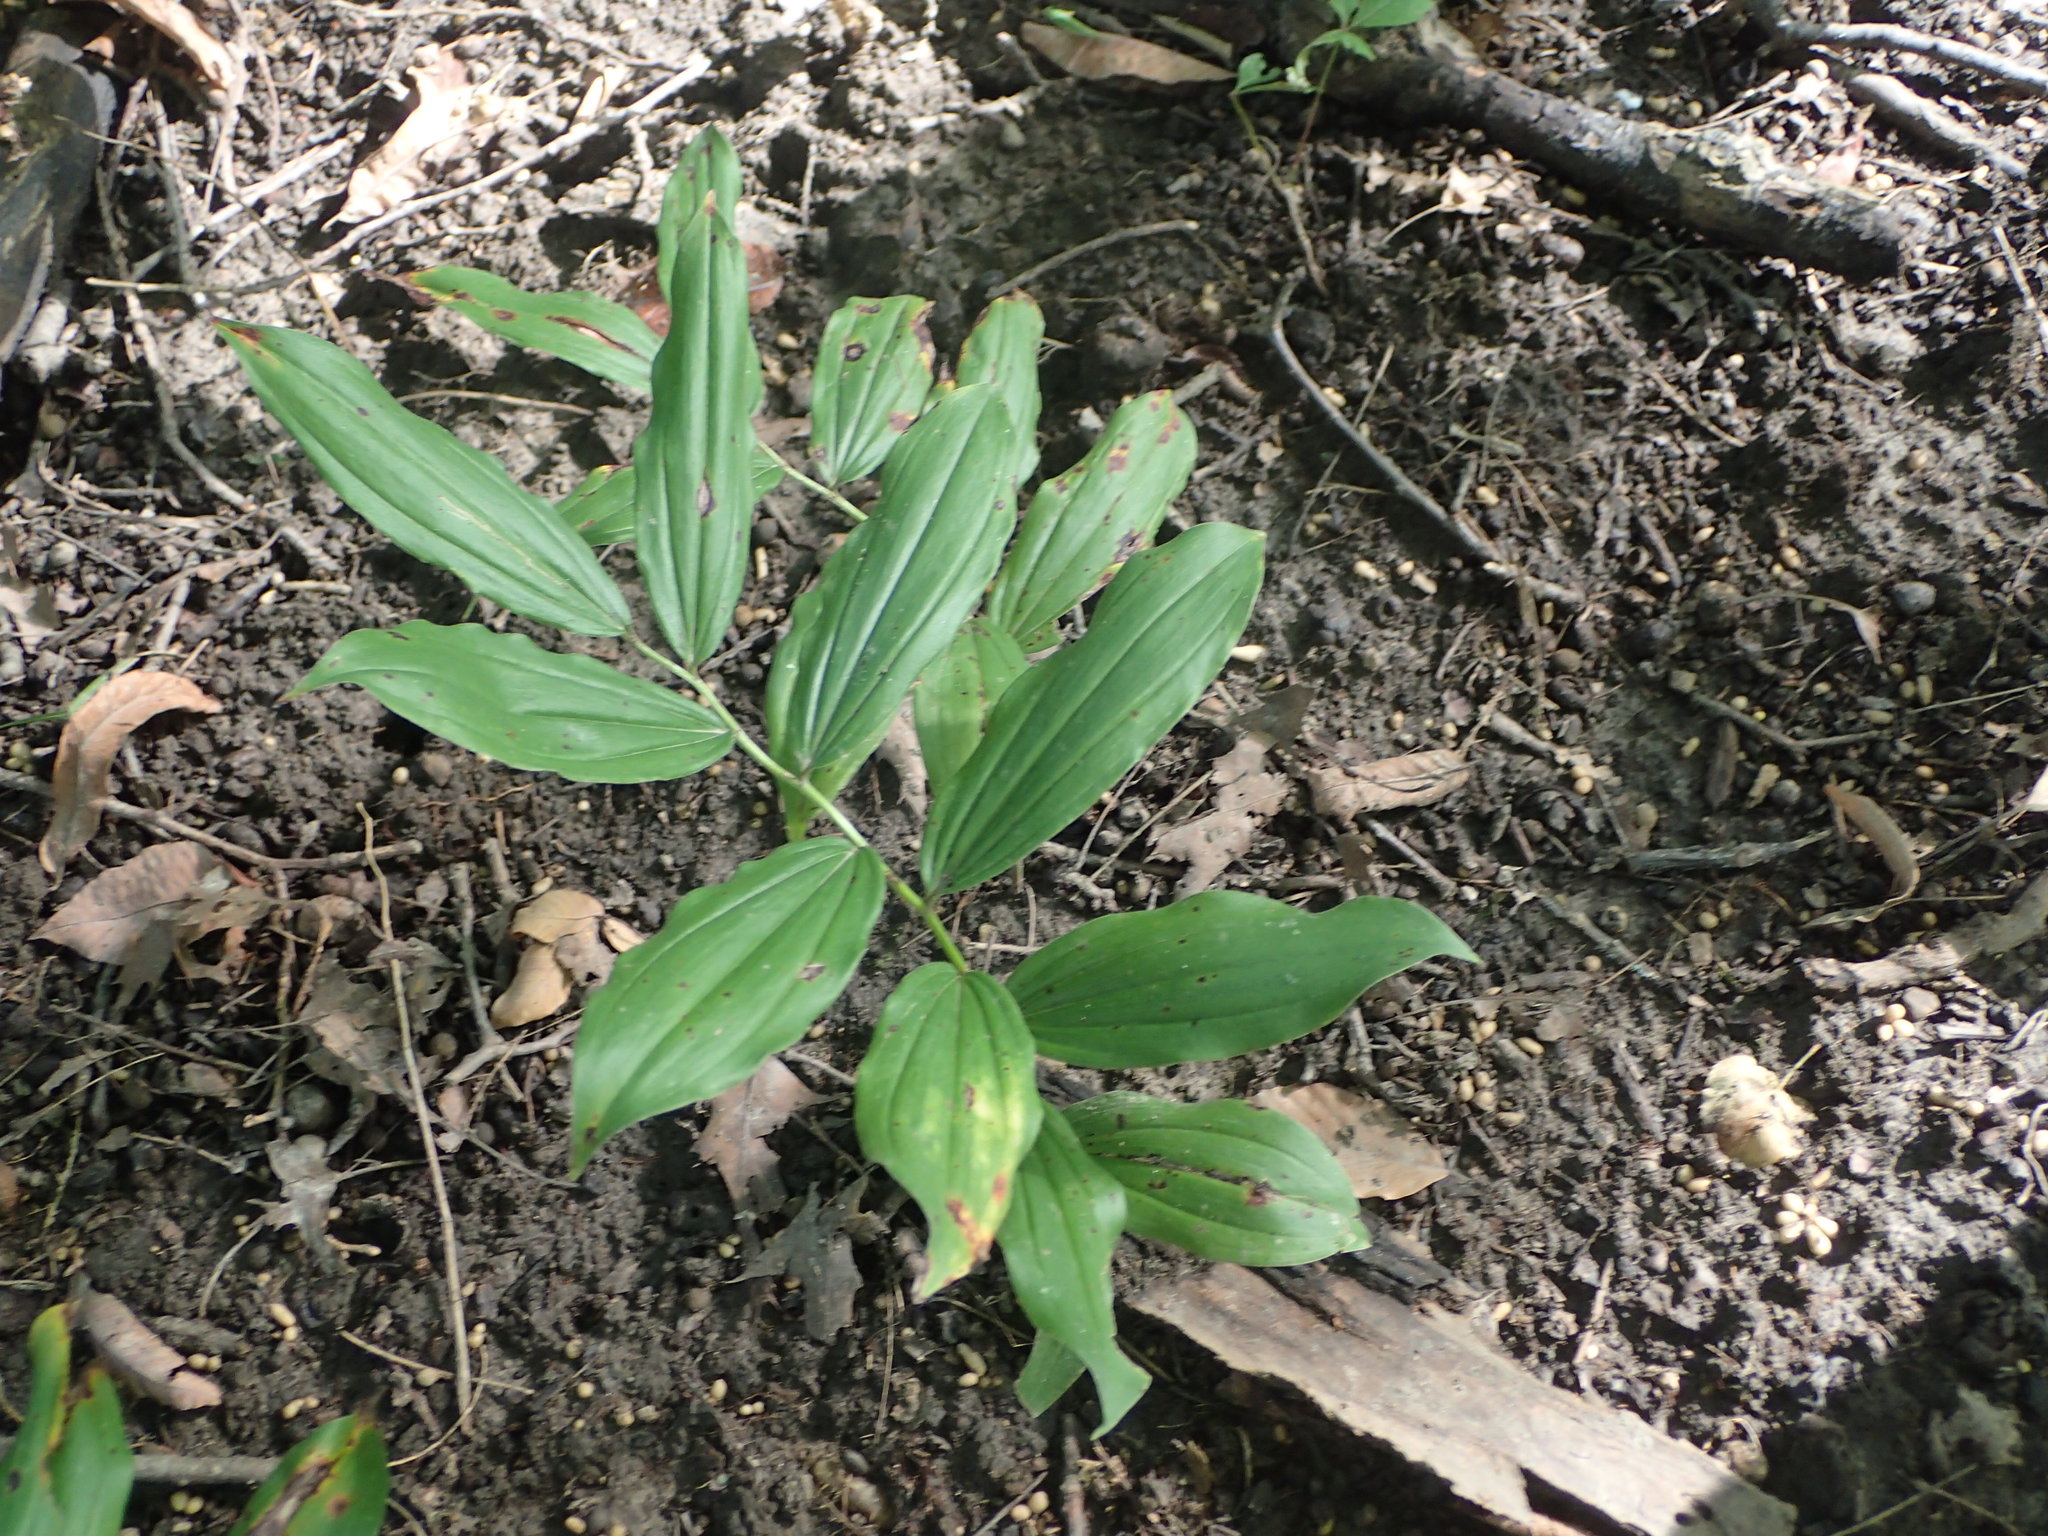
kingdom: Plantae
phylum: Tracheophyta
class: Liliopsida
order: Asparagales
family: Asparagaceae
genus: Maianthemum
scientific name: Maianthemum racemosum
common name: False spikenard
